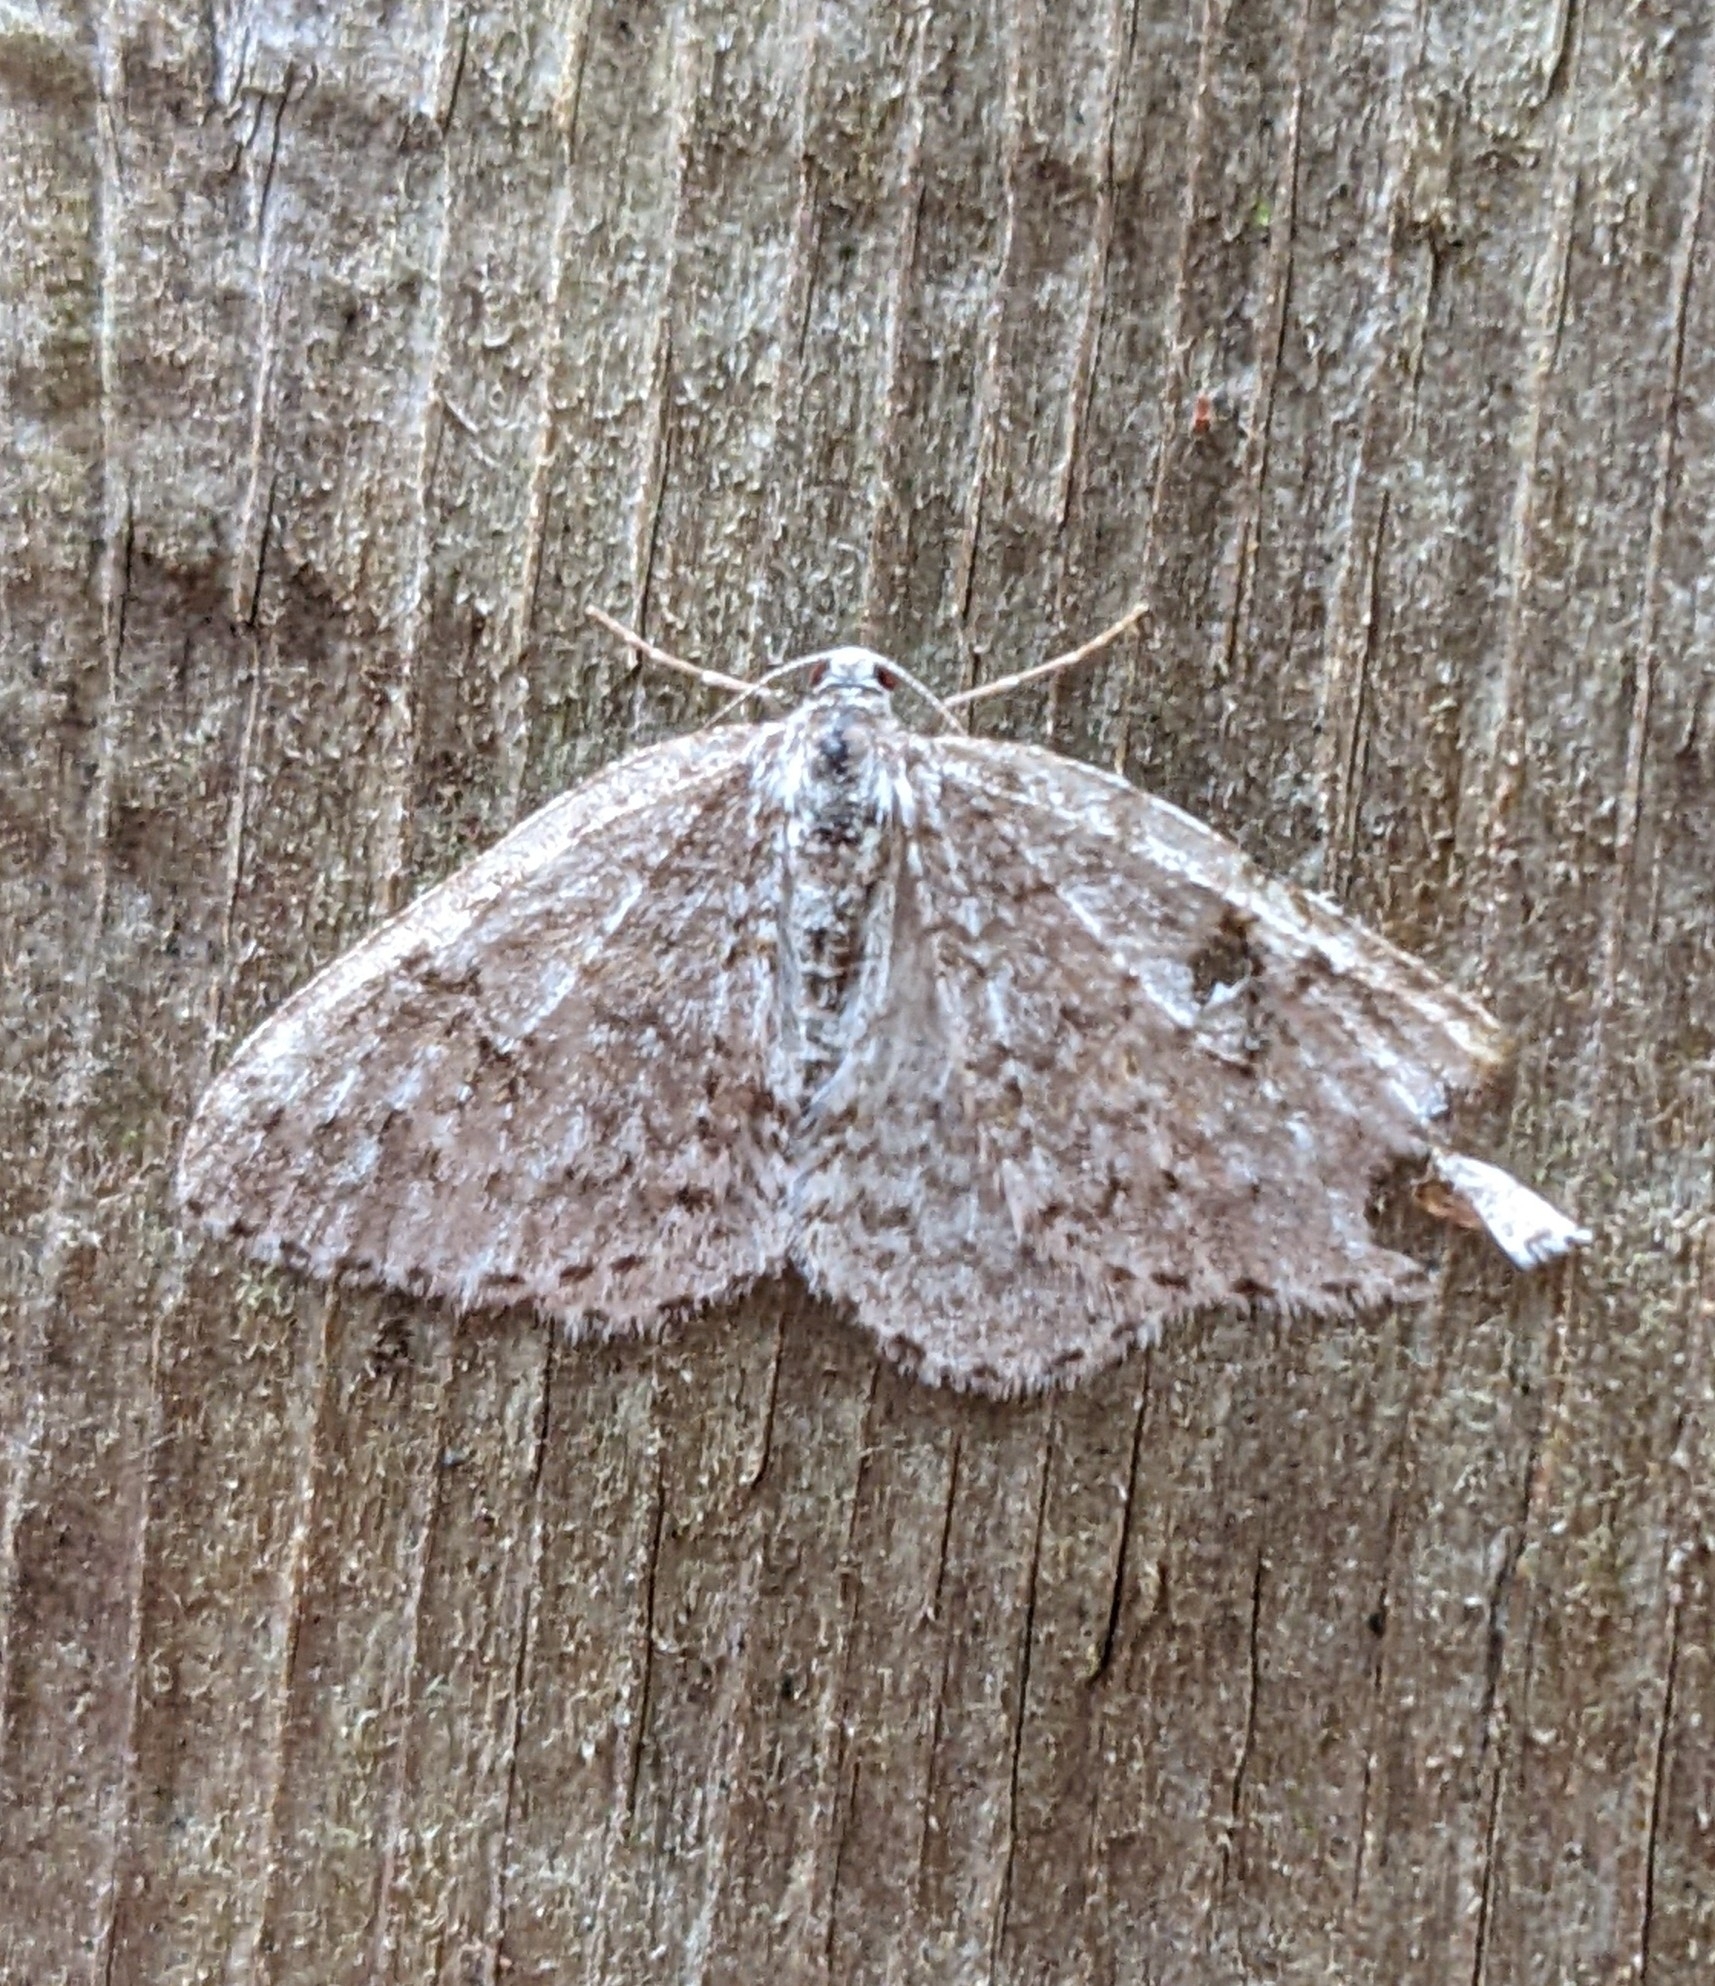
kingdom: Animalia
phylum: Arthropoda
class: Insecta
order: Lepidoptera
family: Geometridae
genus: Venusia
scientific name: Venusia pearsalli
